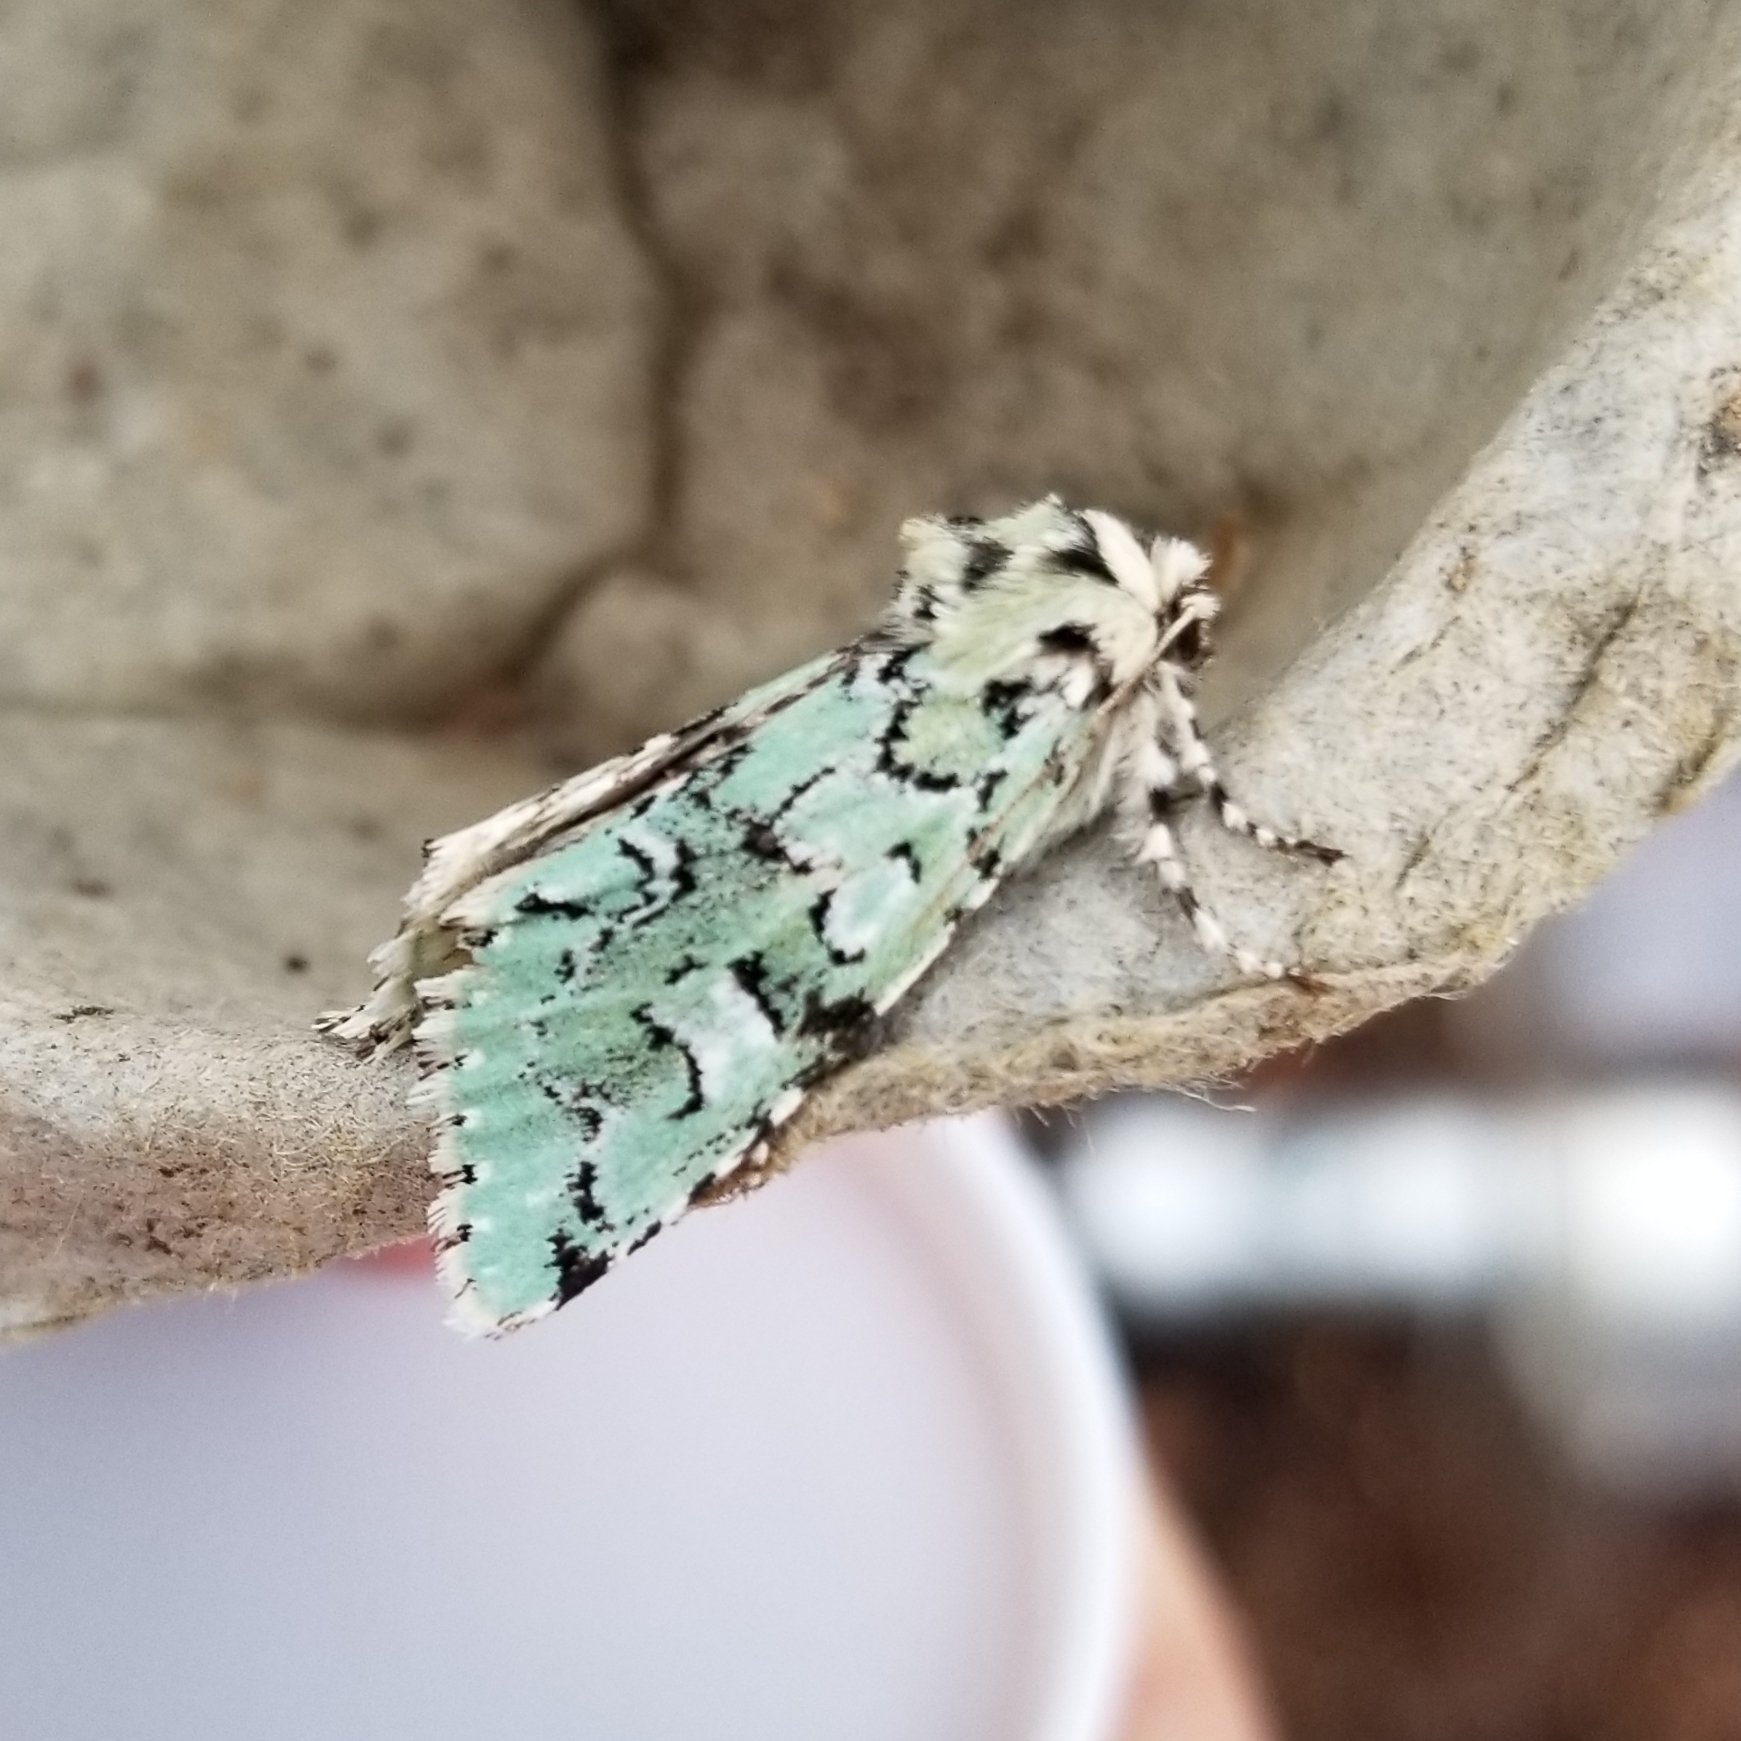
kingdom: Animalia
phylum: Arthropoda
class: Insecta
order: Lepidoptera
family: Noctuidae
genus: Feralia
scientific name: Feralia major
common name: Major sallow
